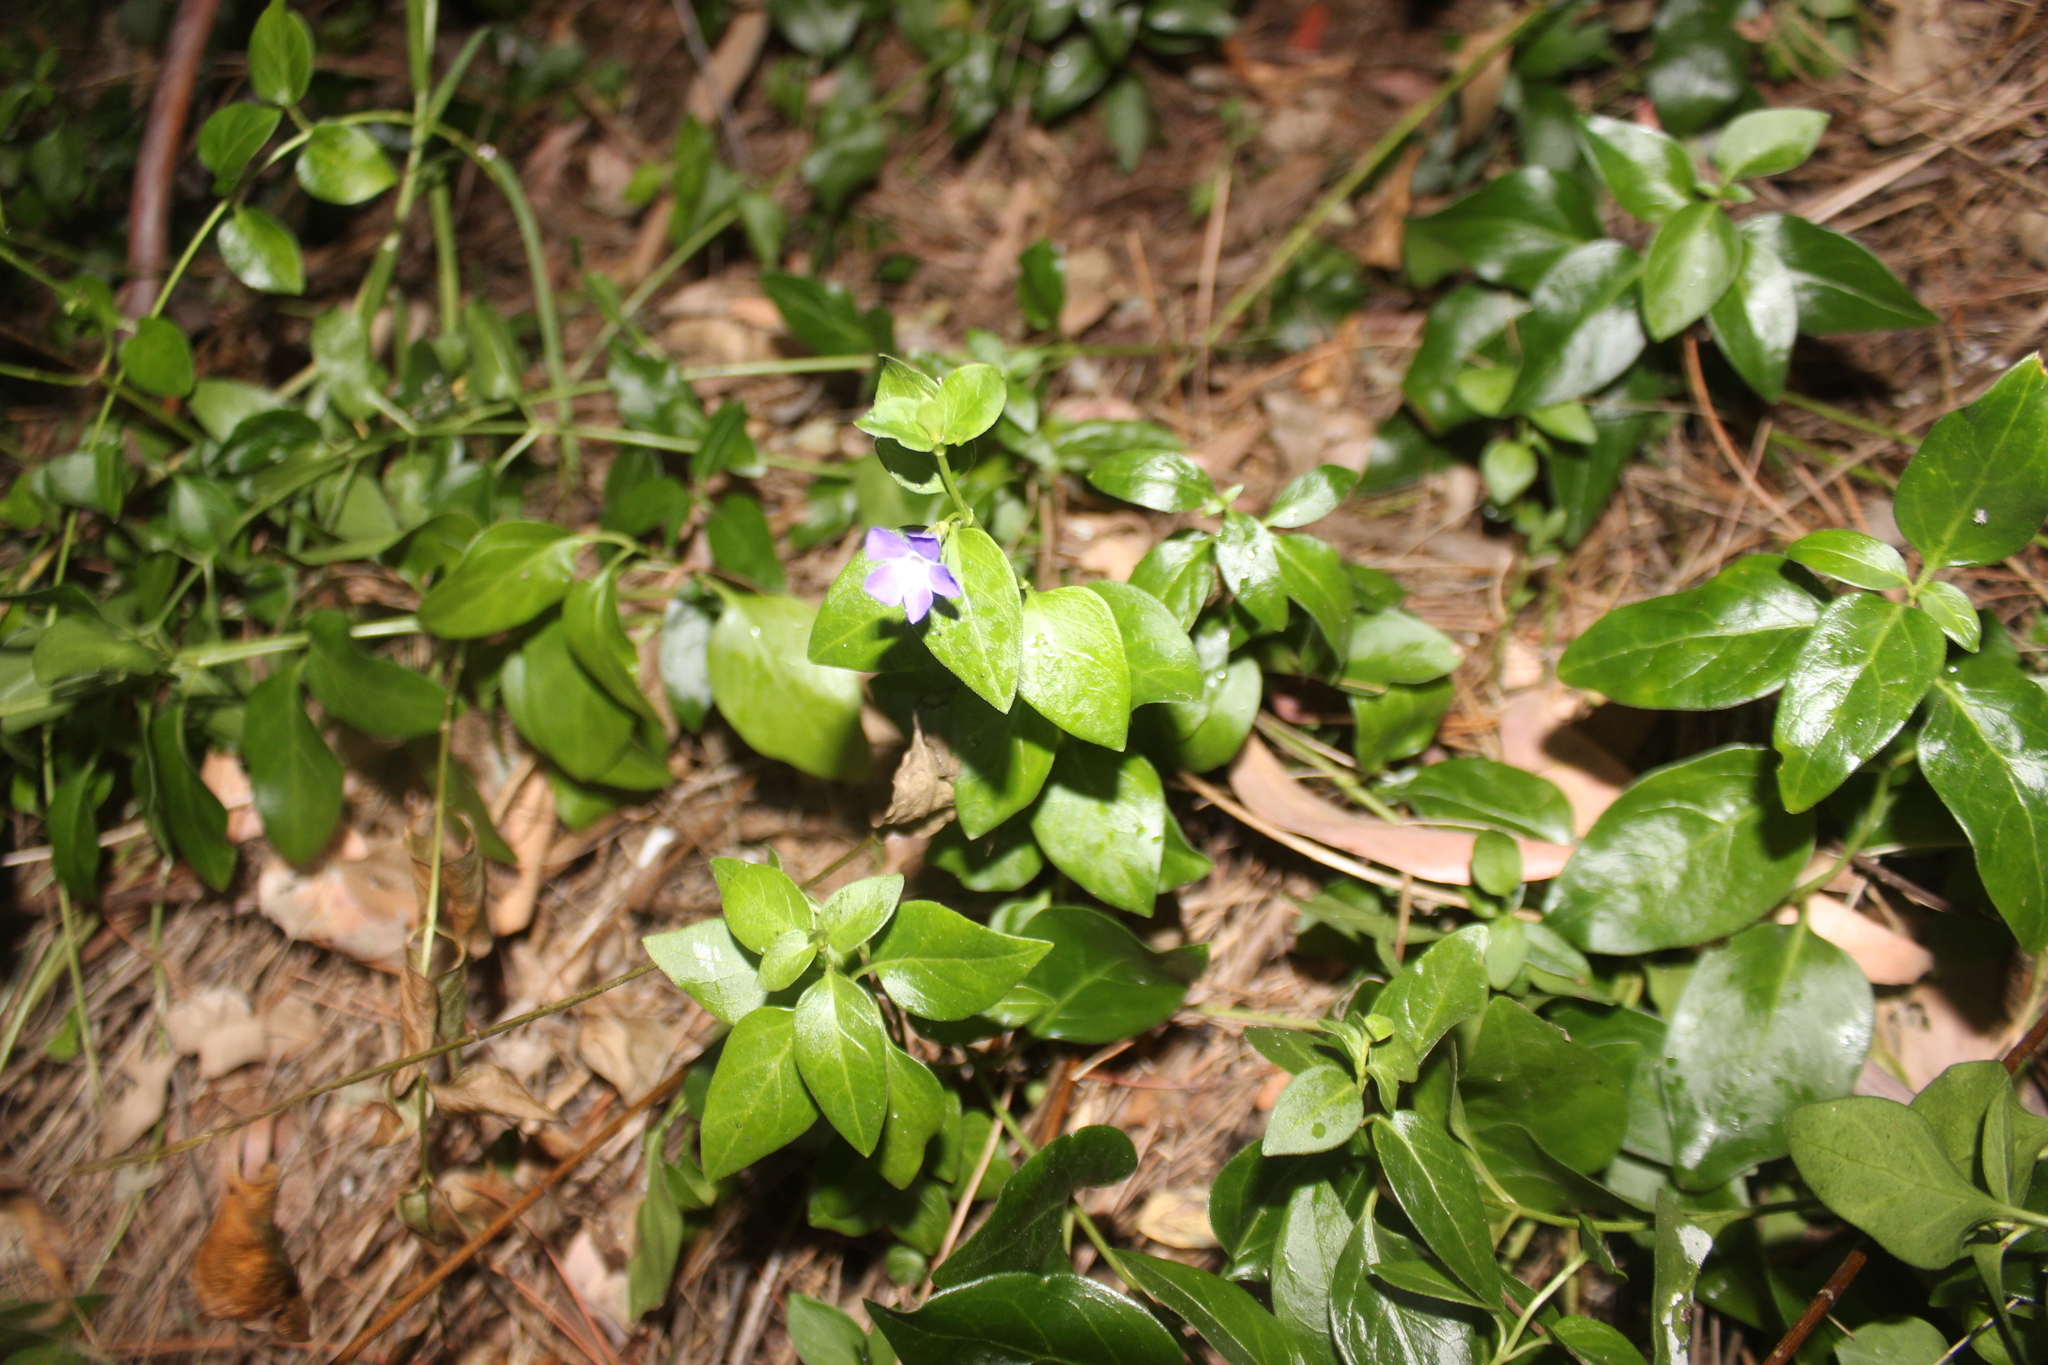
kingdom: Plantae
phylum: Tracheophyta
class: Magnoliopsida
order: Gentianales
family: Apocynaceae
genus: Vinca
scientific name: Vinca minor
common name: Lesser periwinkle
